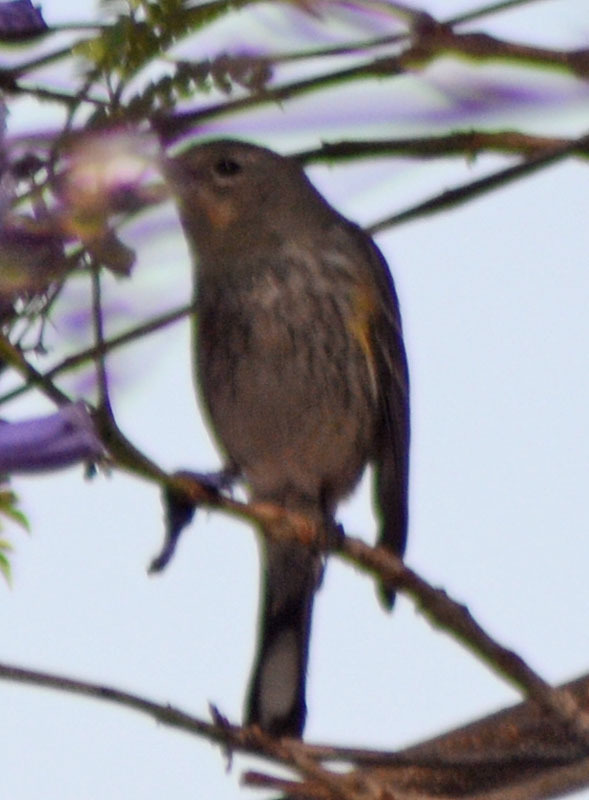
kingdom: Animalia
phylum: Chordata
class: Aves
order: Passeriformes
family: Parulidae
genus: Setophaga
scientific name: Setophaga auduboni
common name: Audubon's warbler
